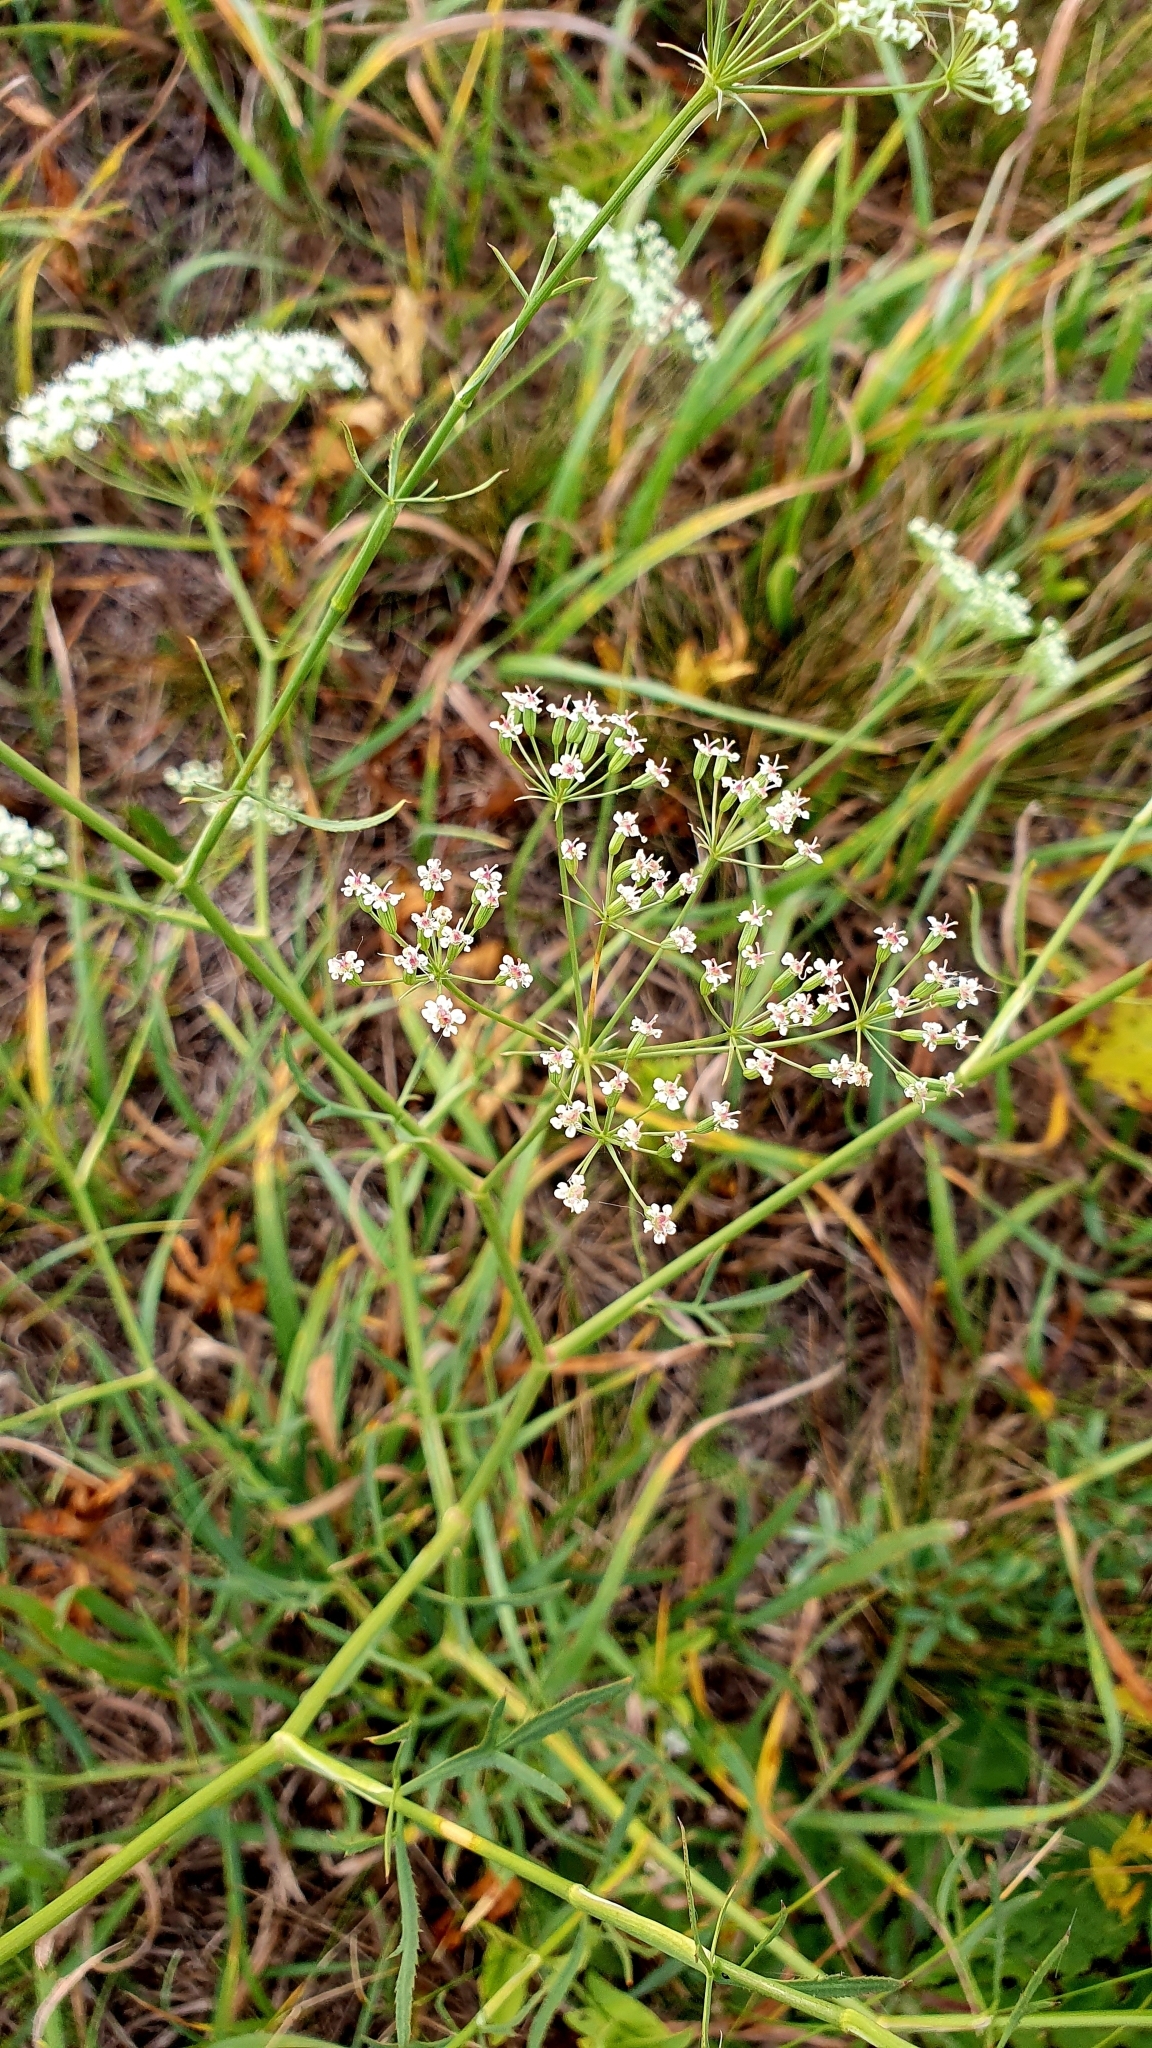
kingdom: Plantae
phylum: Tracheophyta
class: Magnoliopsida
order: Apiales
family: Apiaceae
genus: Falcaria
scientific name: Falcaria vulgaris
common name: Longleaf
